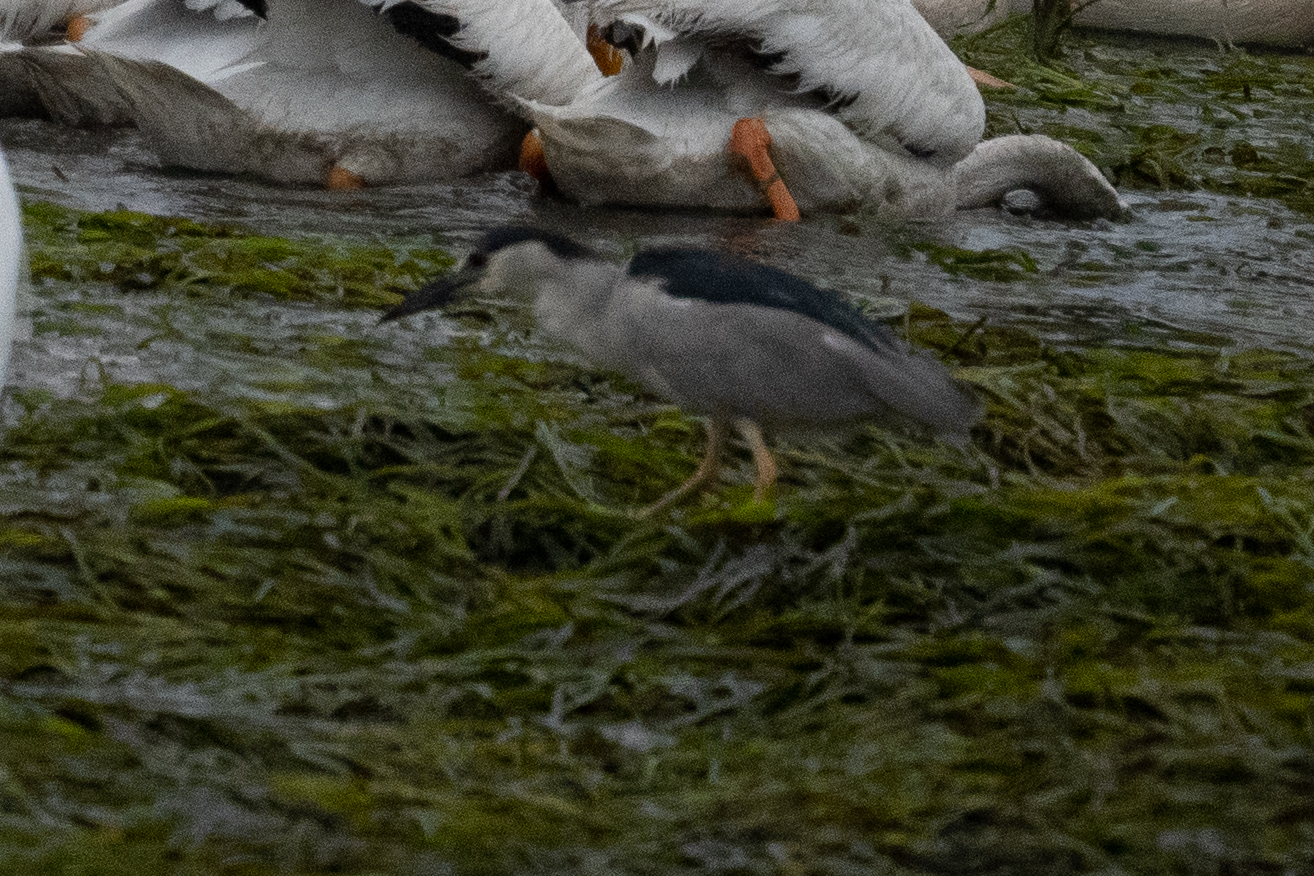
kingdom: Animalia
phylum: Chordata
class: Aves
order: Pelecaniformes
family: Ardeidae
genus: Nycticorax
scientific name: Nycticorax nycticorax
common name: Black-crowned night heron
